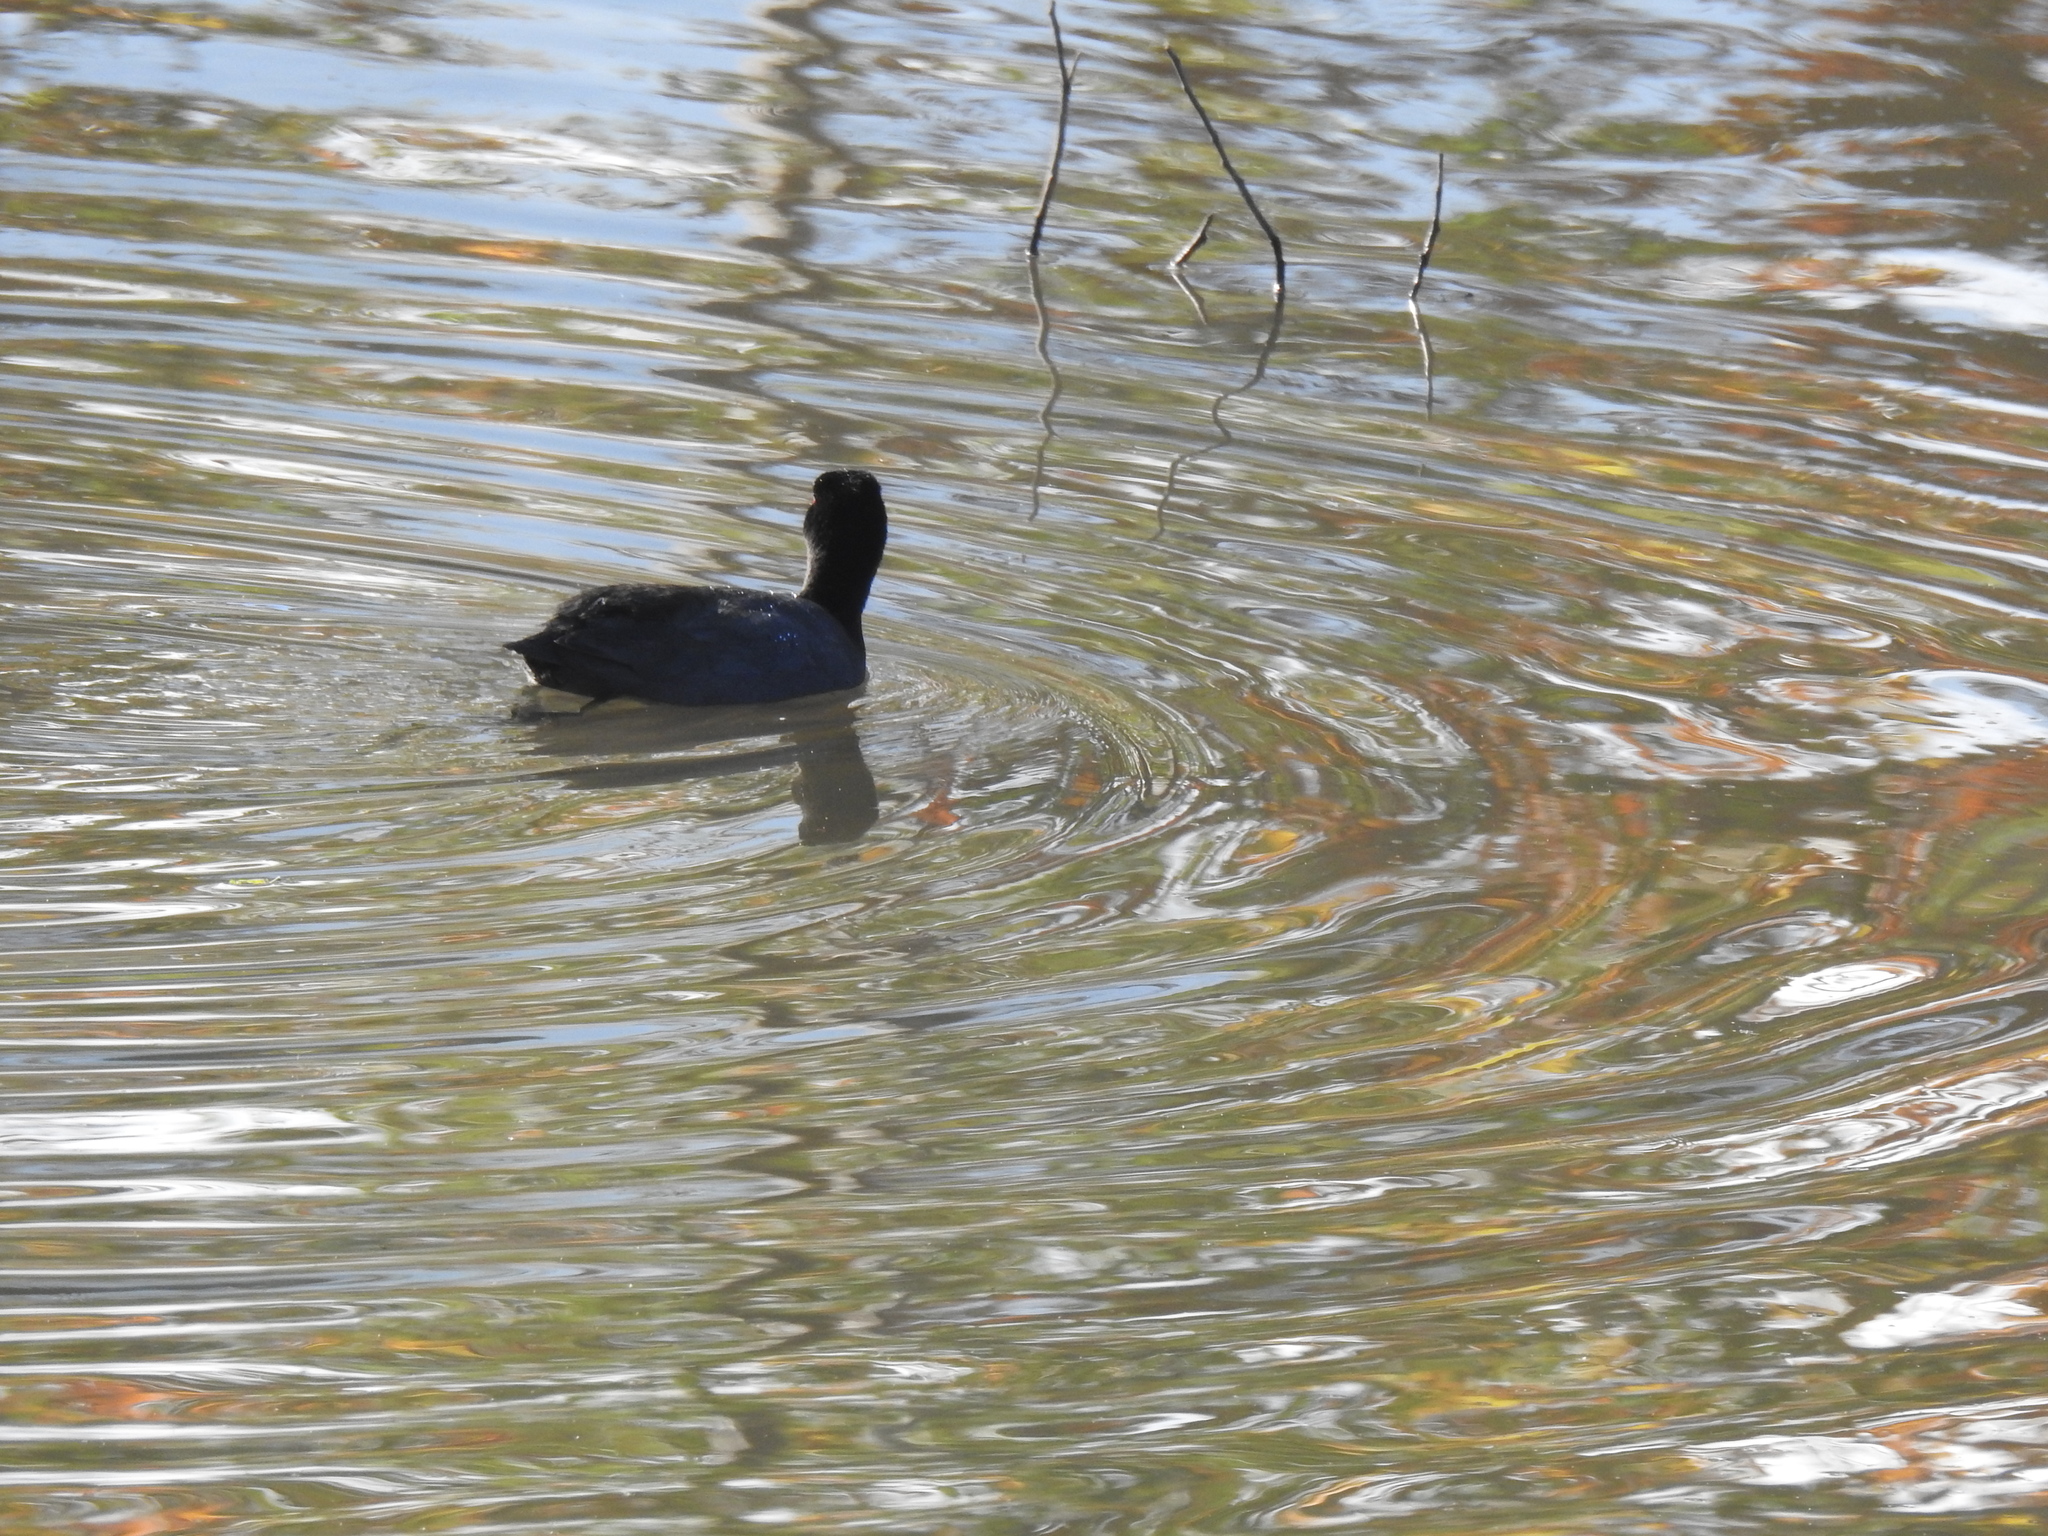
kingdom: Animalia
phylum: Chordata
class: Aves
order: Gruiformes
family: Rallidae
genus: Fulica
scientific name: Fulica americana
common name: American coot
